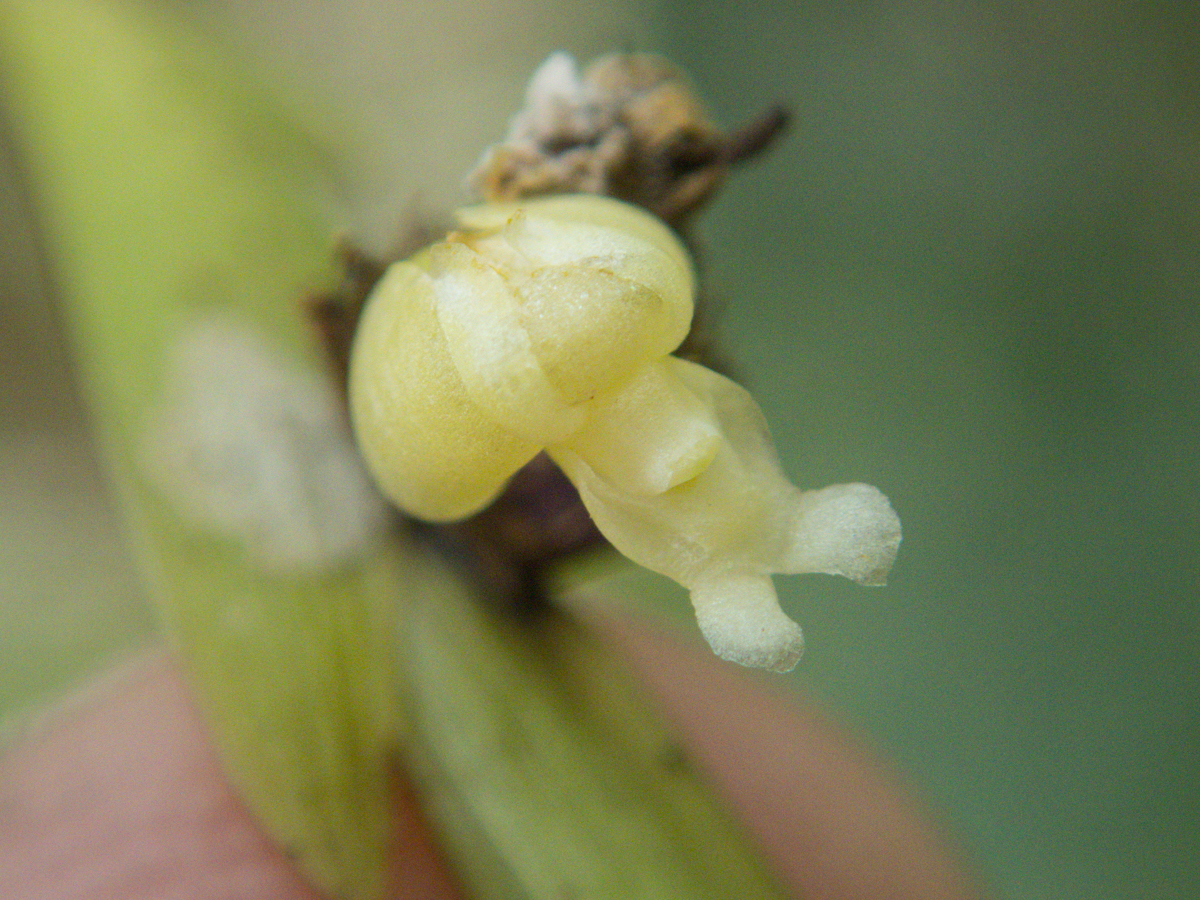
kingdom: Plantae
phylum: Tracheophyta
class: Liliopsida
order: Asparagales
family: Orchidaceae
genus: Dendrobium
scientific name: Dendrobium aloifolium
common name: Aloe-like dendrobium
